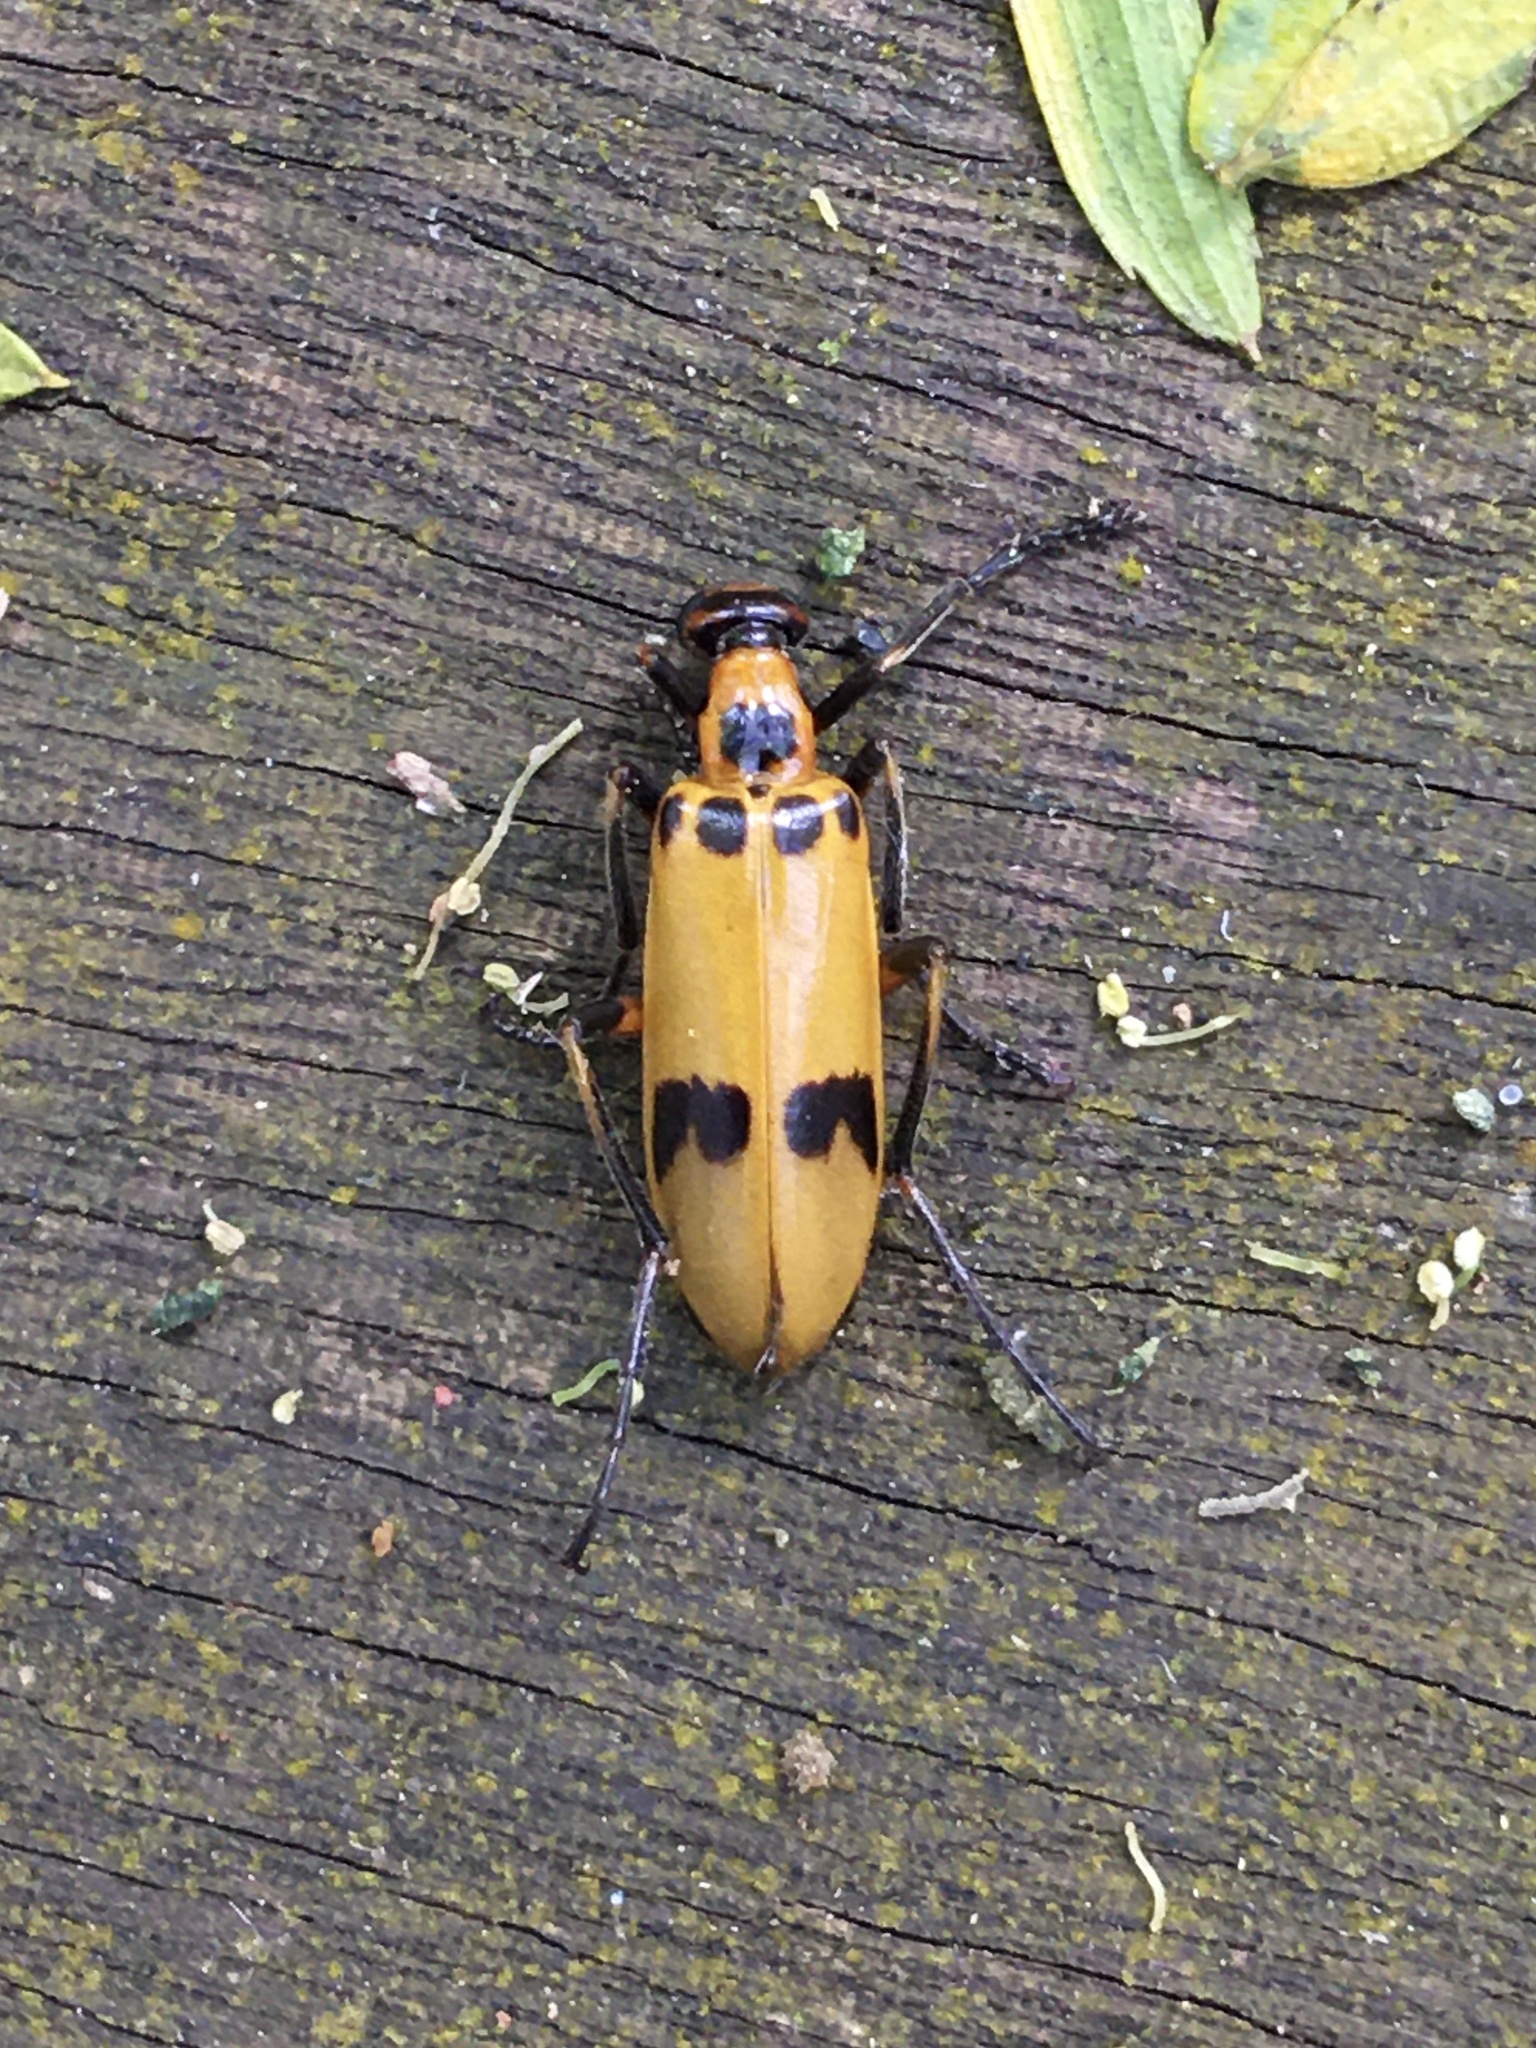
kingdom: Animalia
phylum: Arthropoda
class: Insecta
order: Coleoptera
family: Meloidae
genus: Pyrota
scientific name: Pyrota
